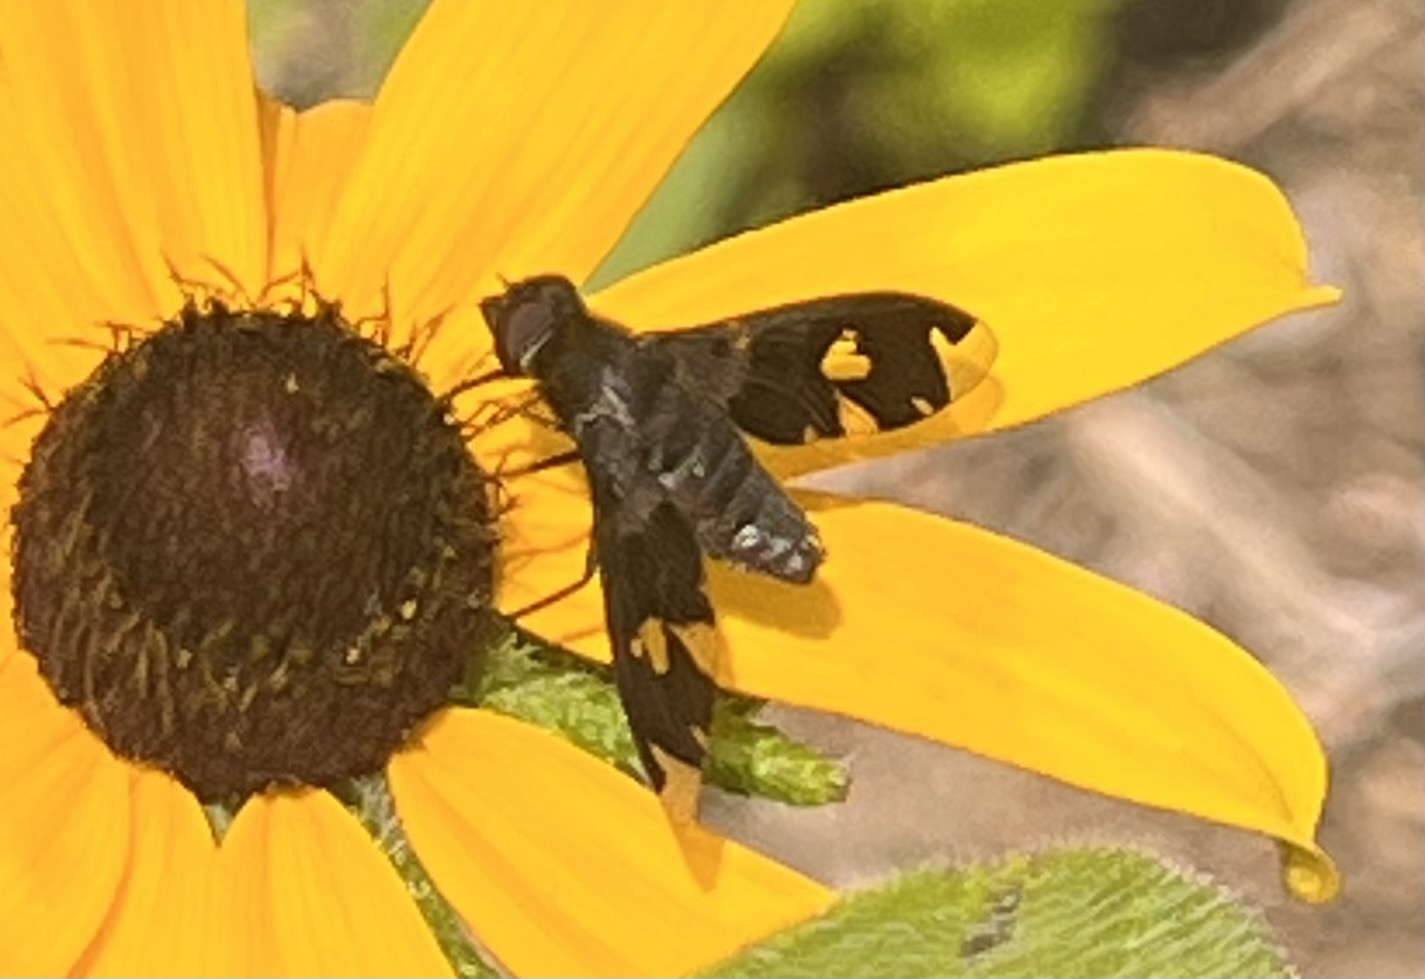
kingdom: Animalia
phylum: Arthropoda
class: Insecta
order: Diptera
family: Bombyliidae
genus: Exoprosopa
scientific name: Exoprosopa decora
